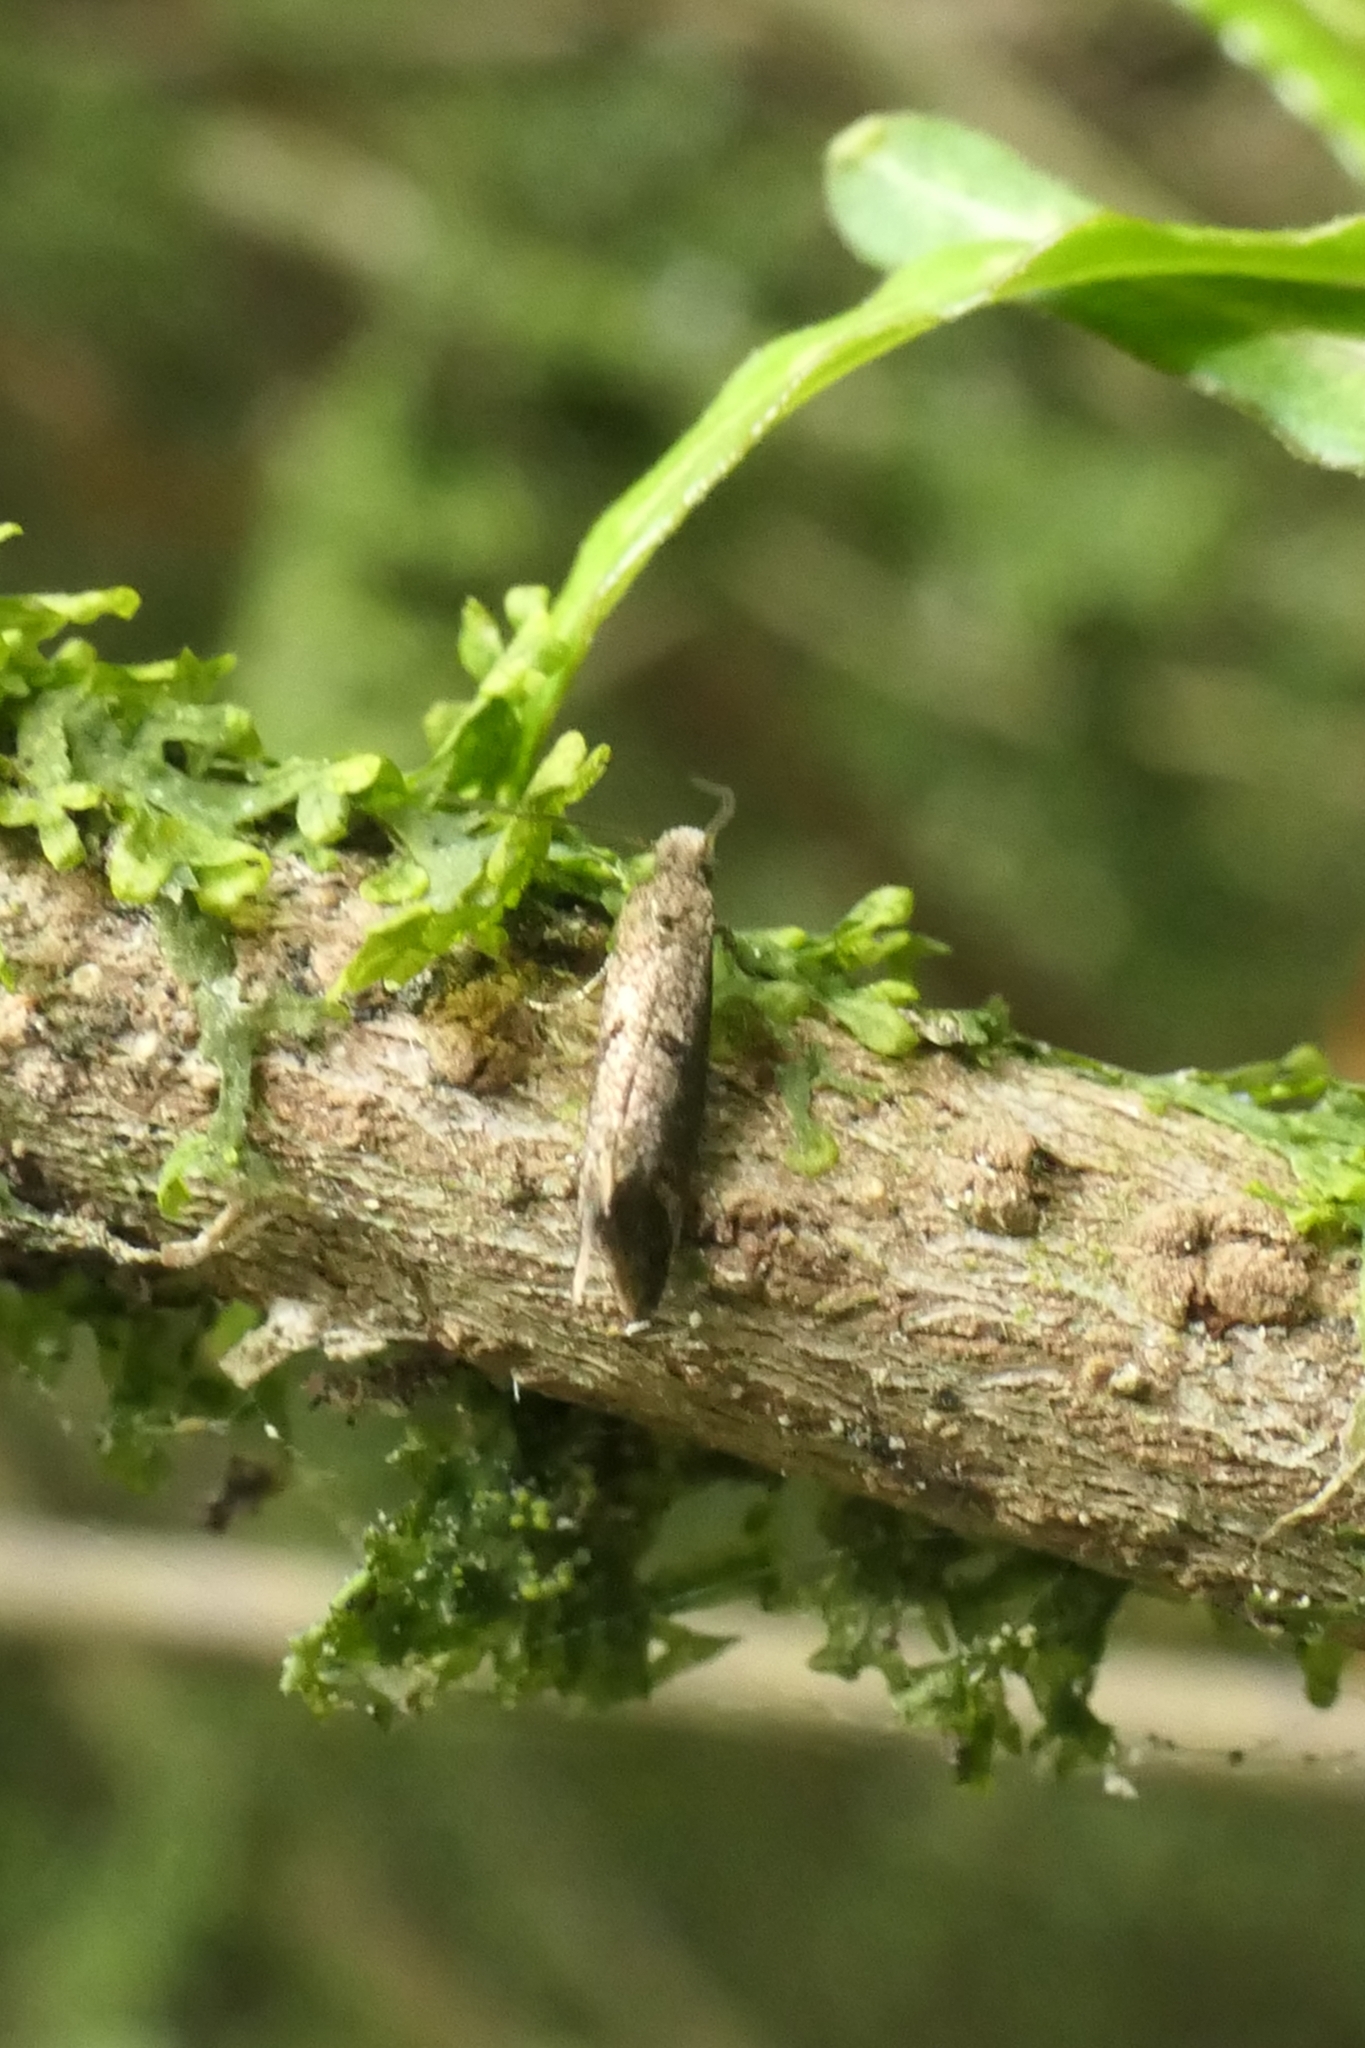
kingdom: Animalia
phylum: Arthropoda
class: Insecta
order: Lepidoptera
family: Tineidae
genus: Tinea
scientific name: Tinea mochlota
